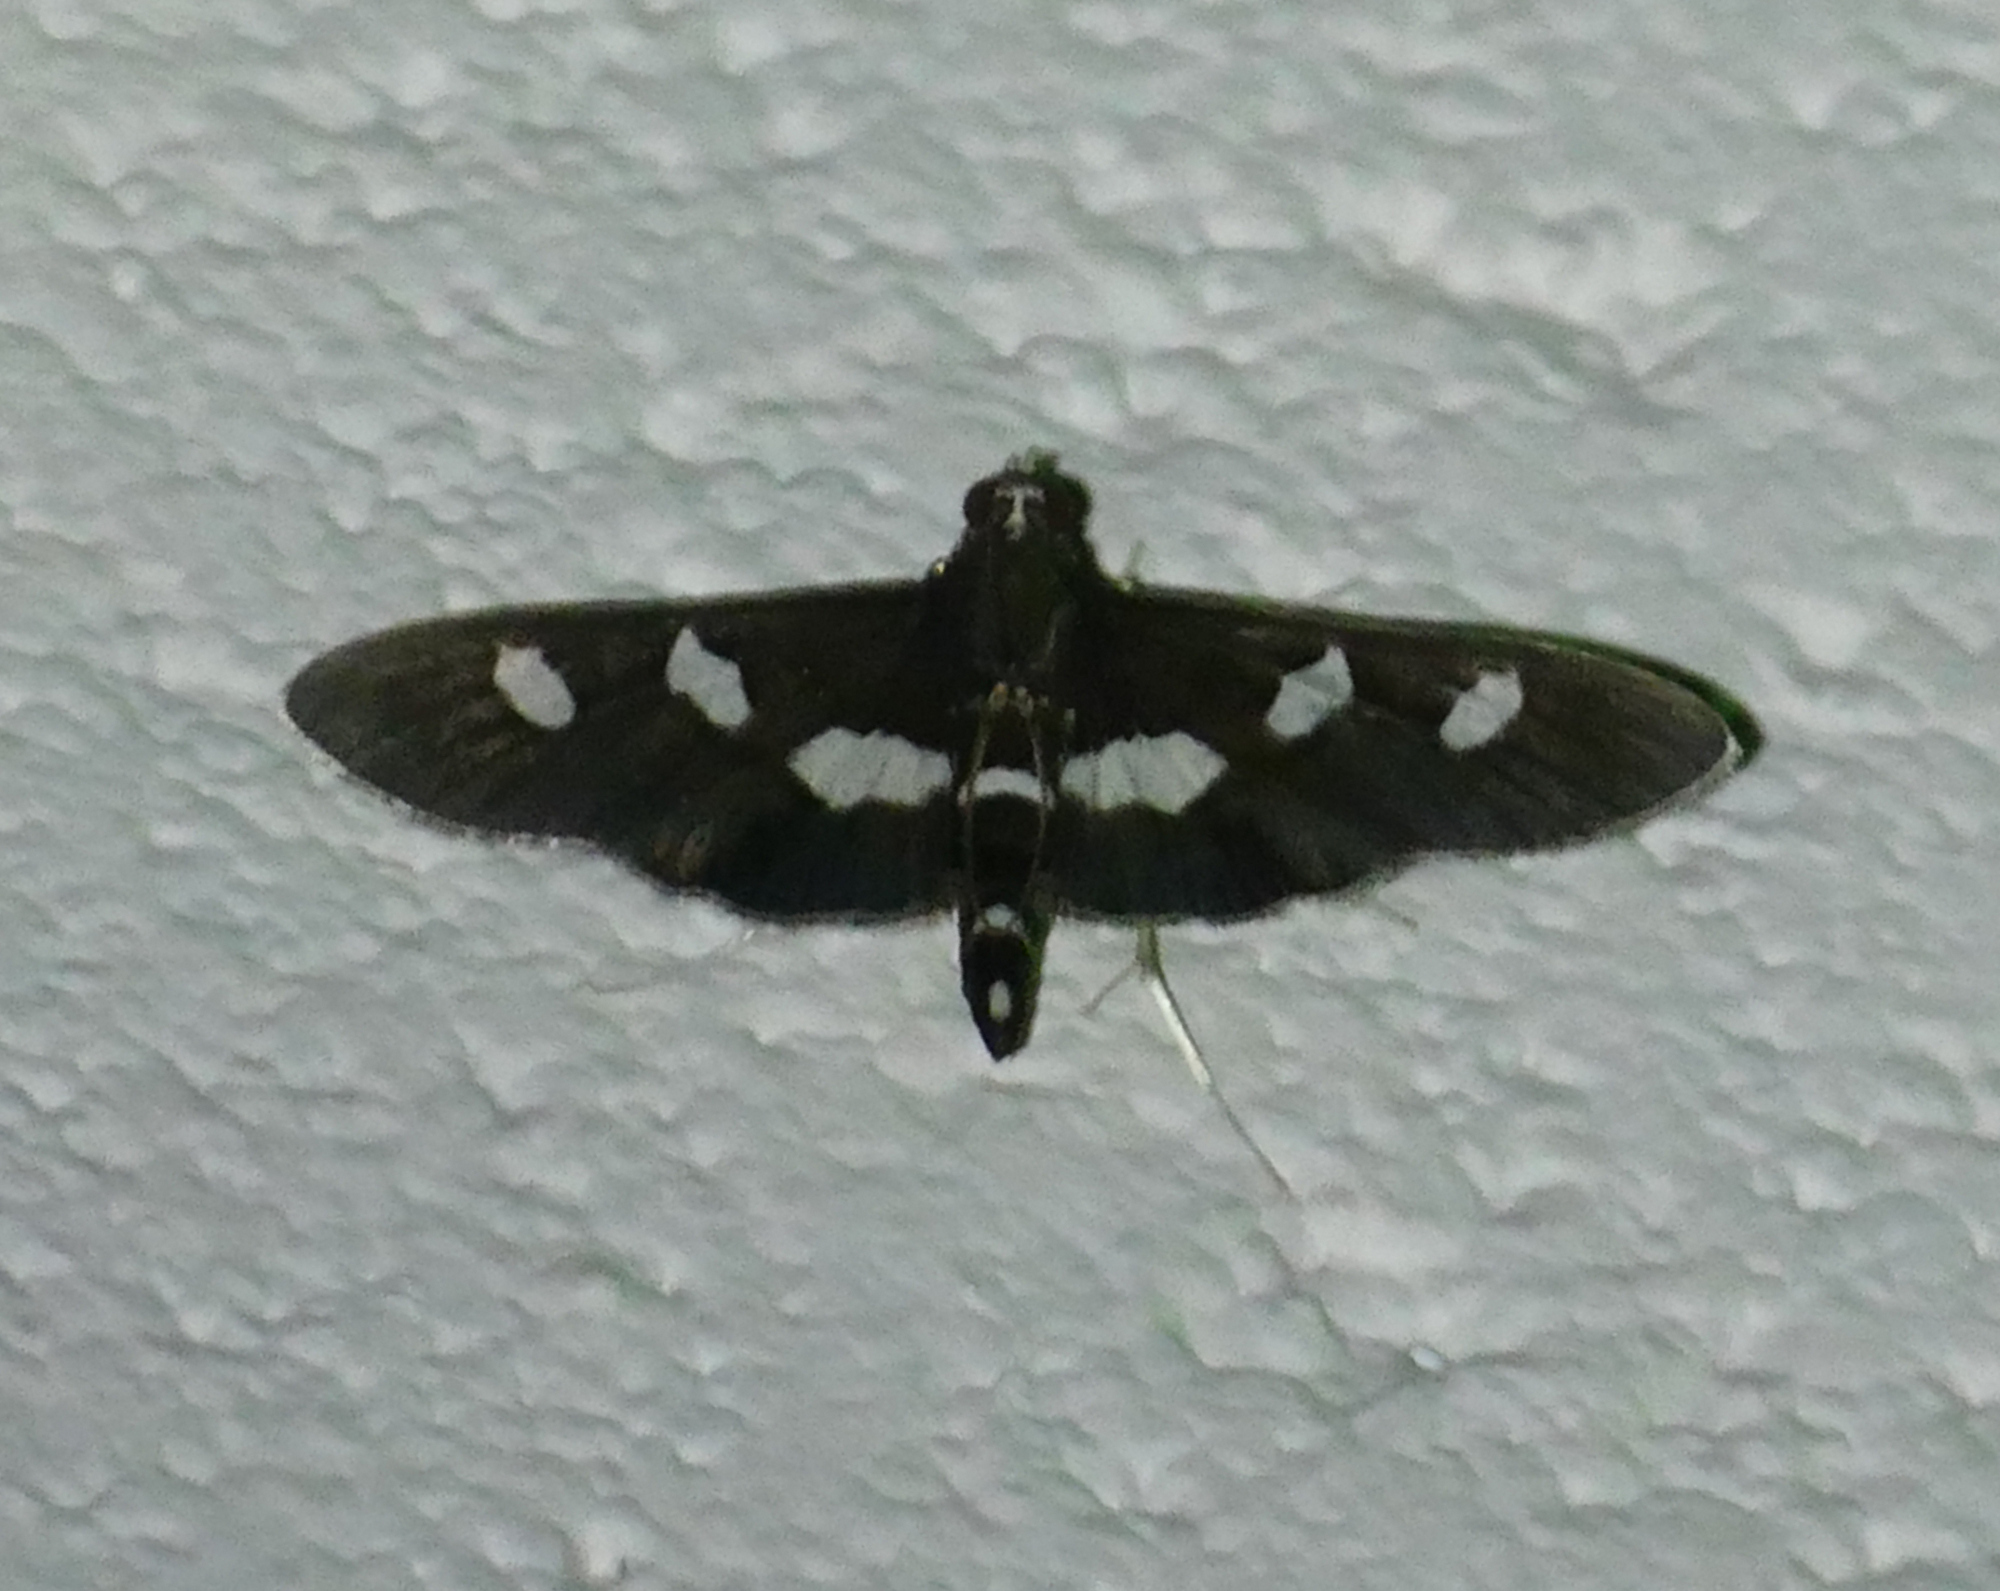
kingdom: Animalia
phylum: Arthropoda
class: Insecta
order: Lepidoptera
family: Crambidae
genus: Desmia
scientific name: Desmia
